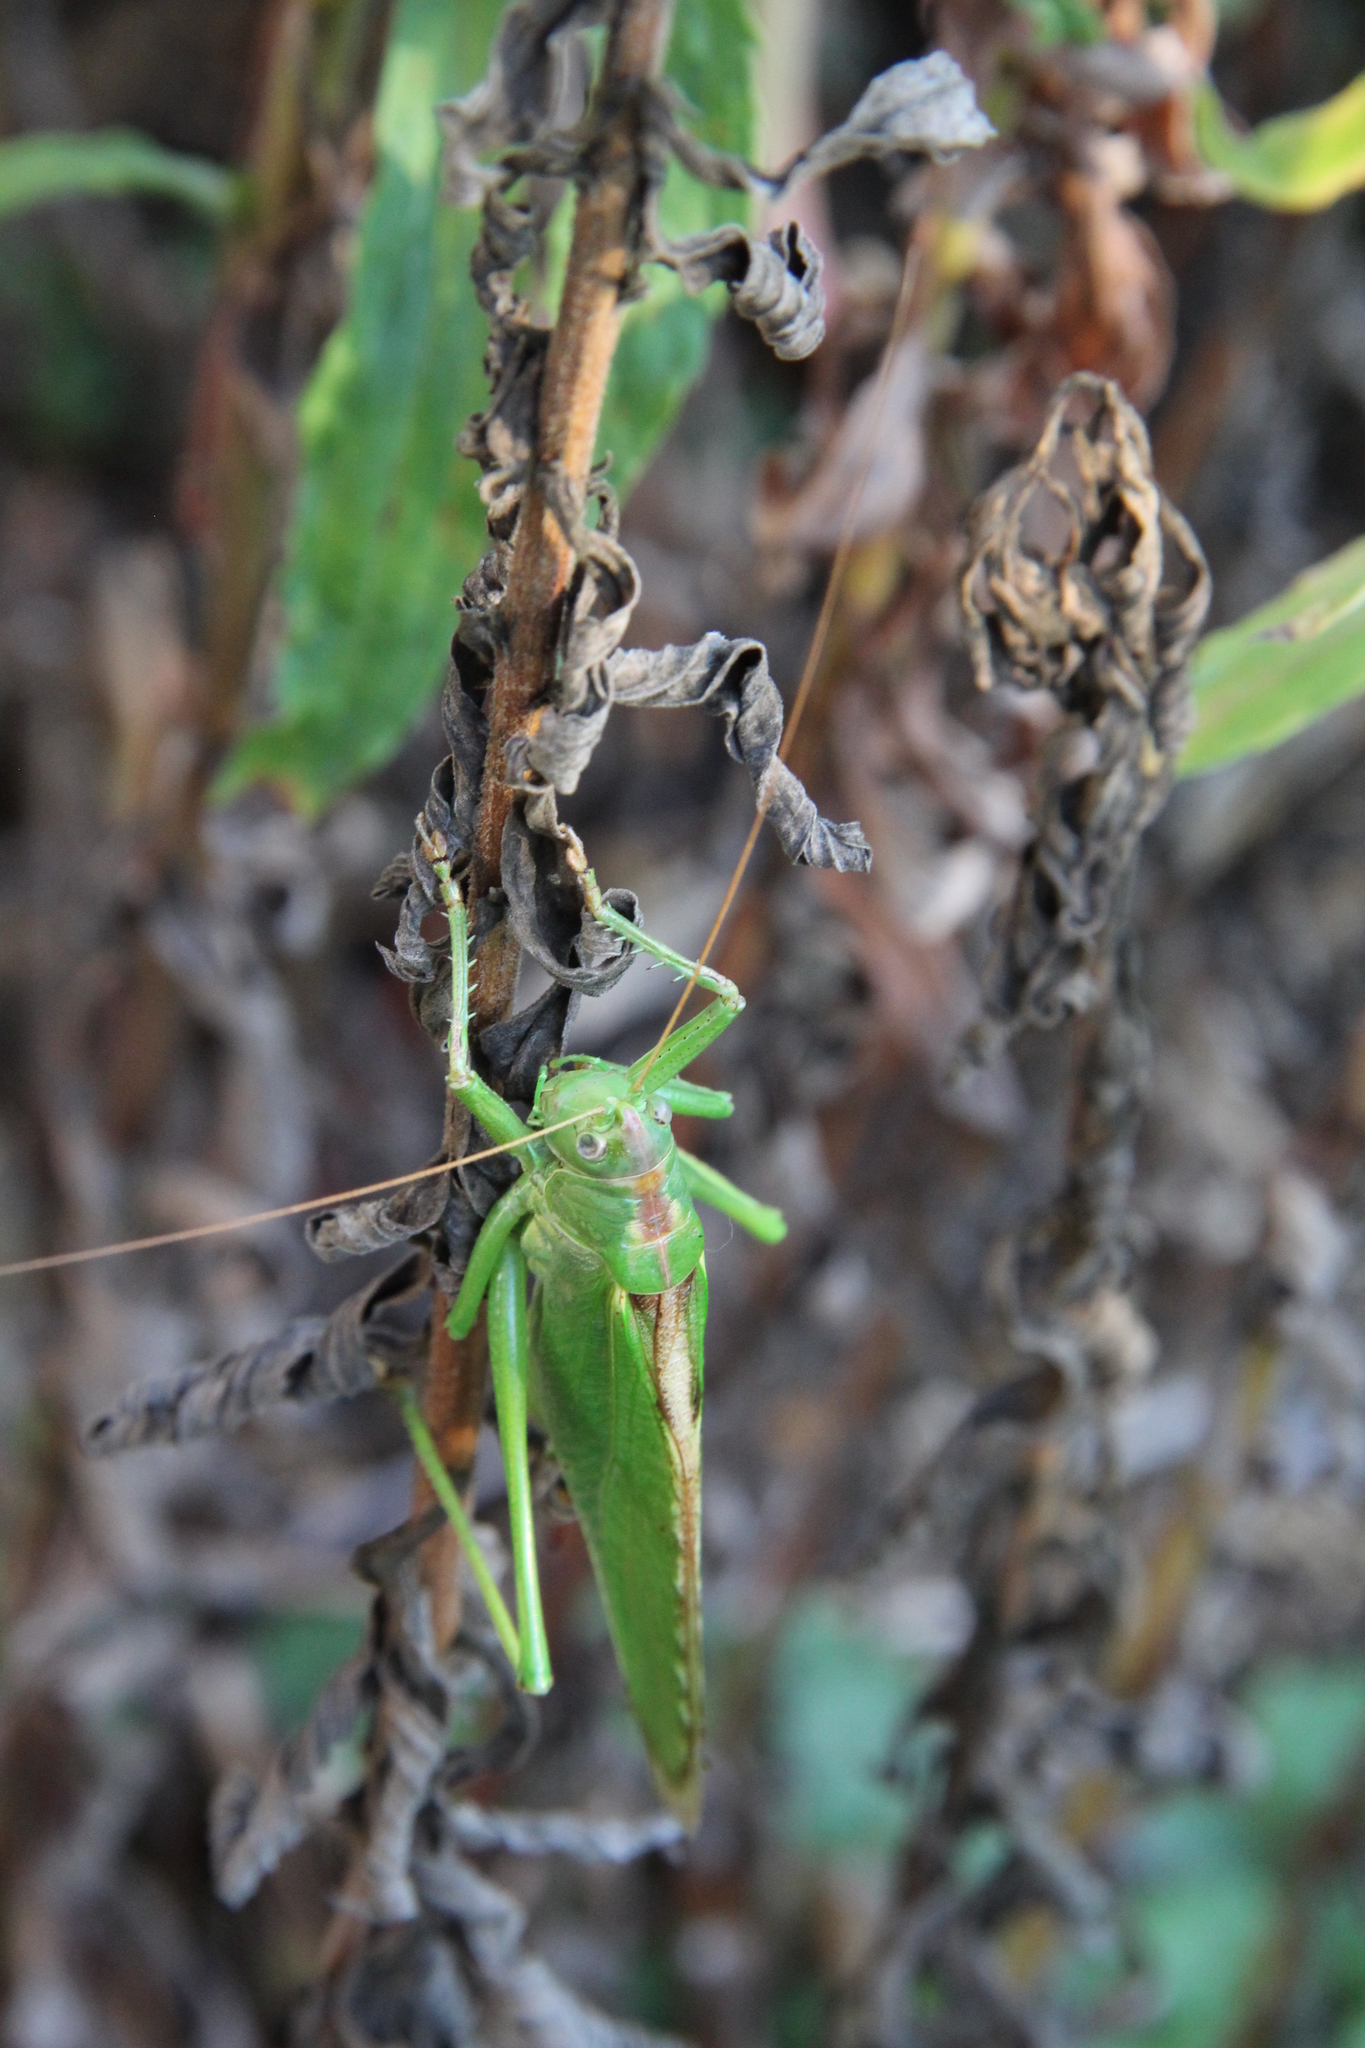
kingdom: Animalia
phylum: Arthropoda
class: Insecta
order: Orthoptera
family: Tettigoniidae
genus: Tettigonia
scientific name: Tettigonia viridissima
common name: Great green bush-cricket
